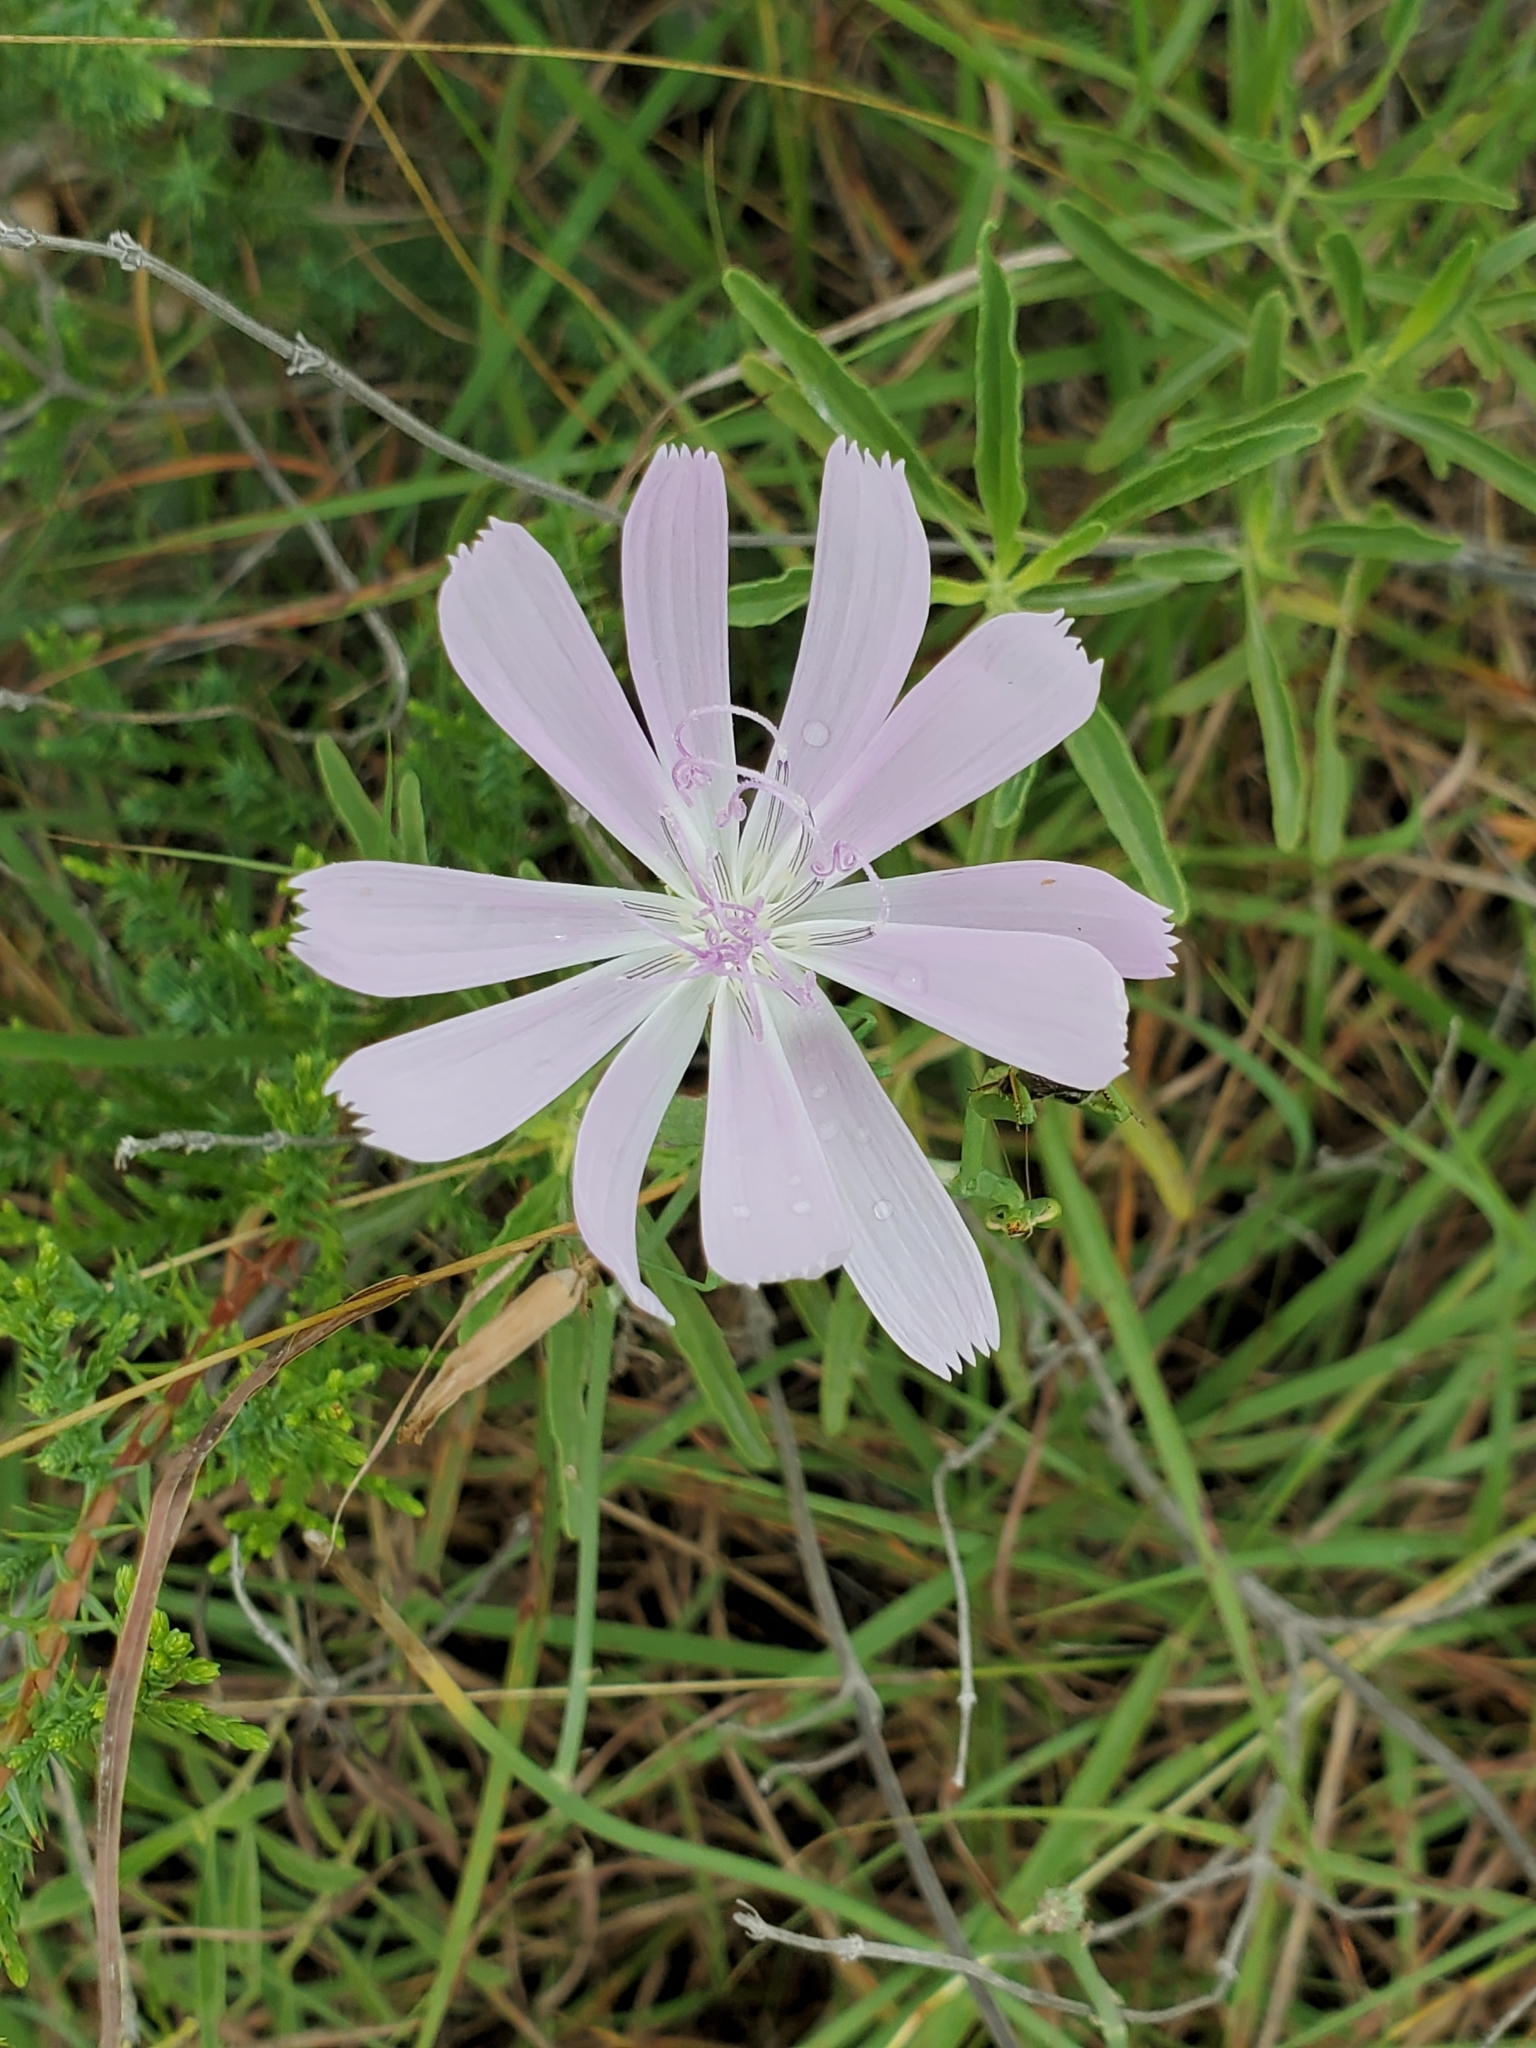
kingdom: Plantae
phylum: Tracheophyta
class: Magnoliopsida
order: Asterales
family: Asteraceae
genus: Lygodesmia
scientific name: Lygodesmia texana
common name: Texas skeleton-plant
